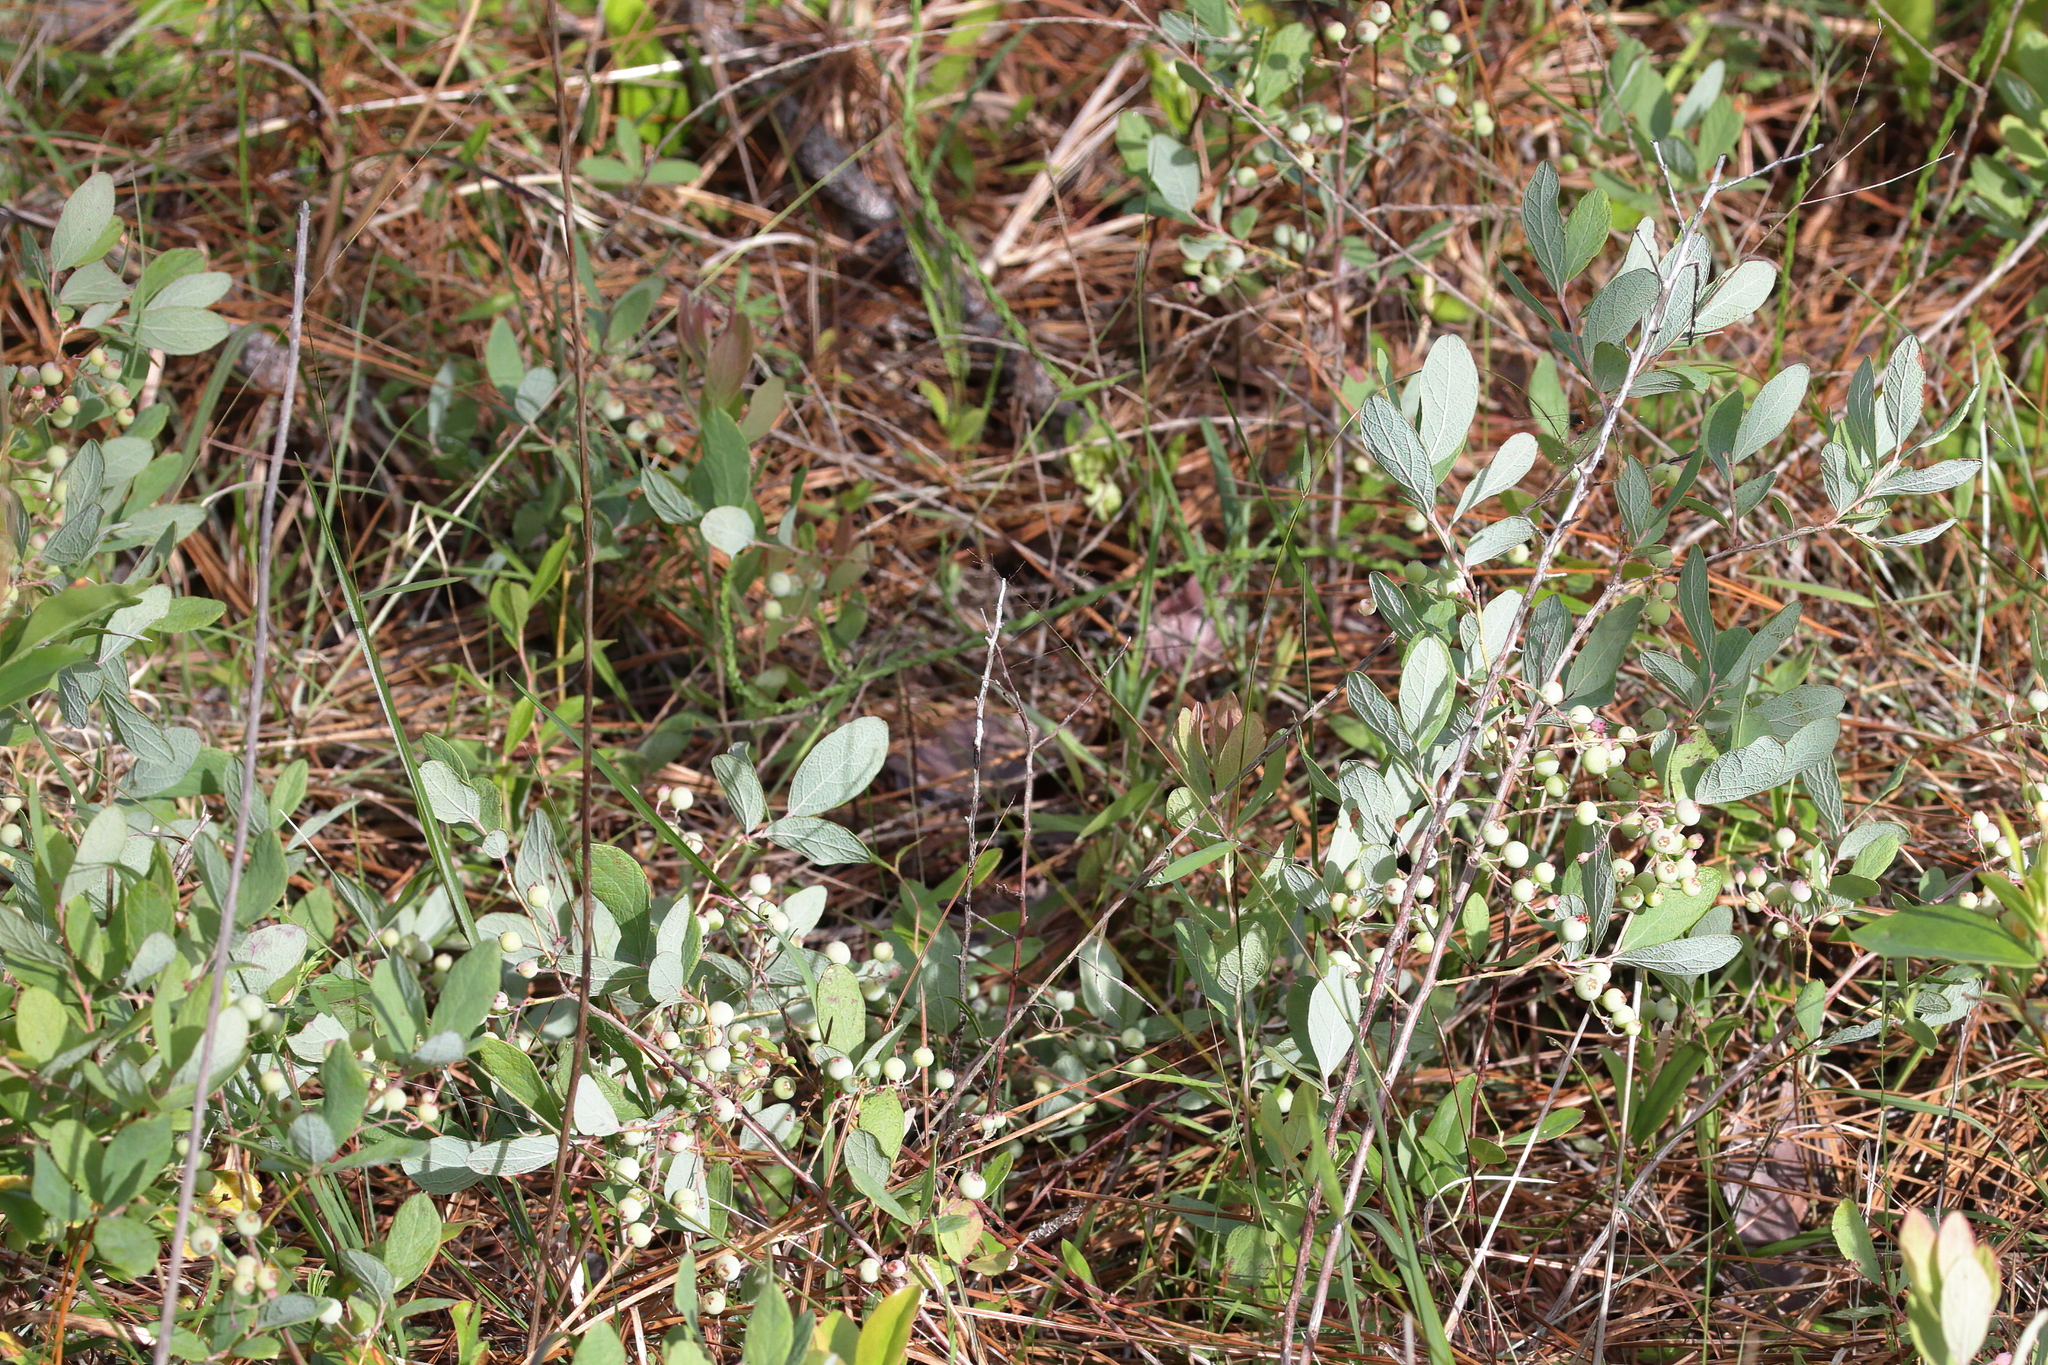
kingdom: Plantae
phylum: Tracheophyta
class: Magnoliopsida
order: Ericales
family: Ericaceae
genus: Gaylussacia
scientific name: Gaylussacia nana
